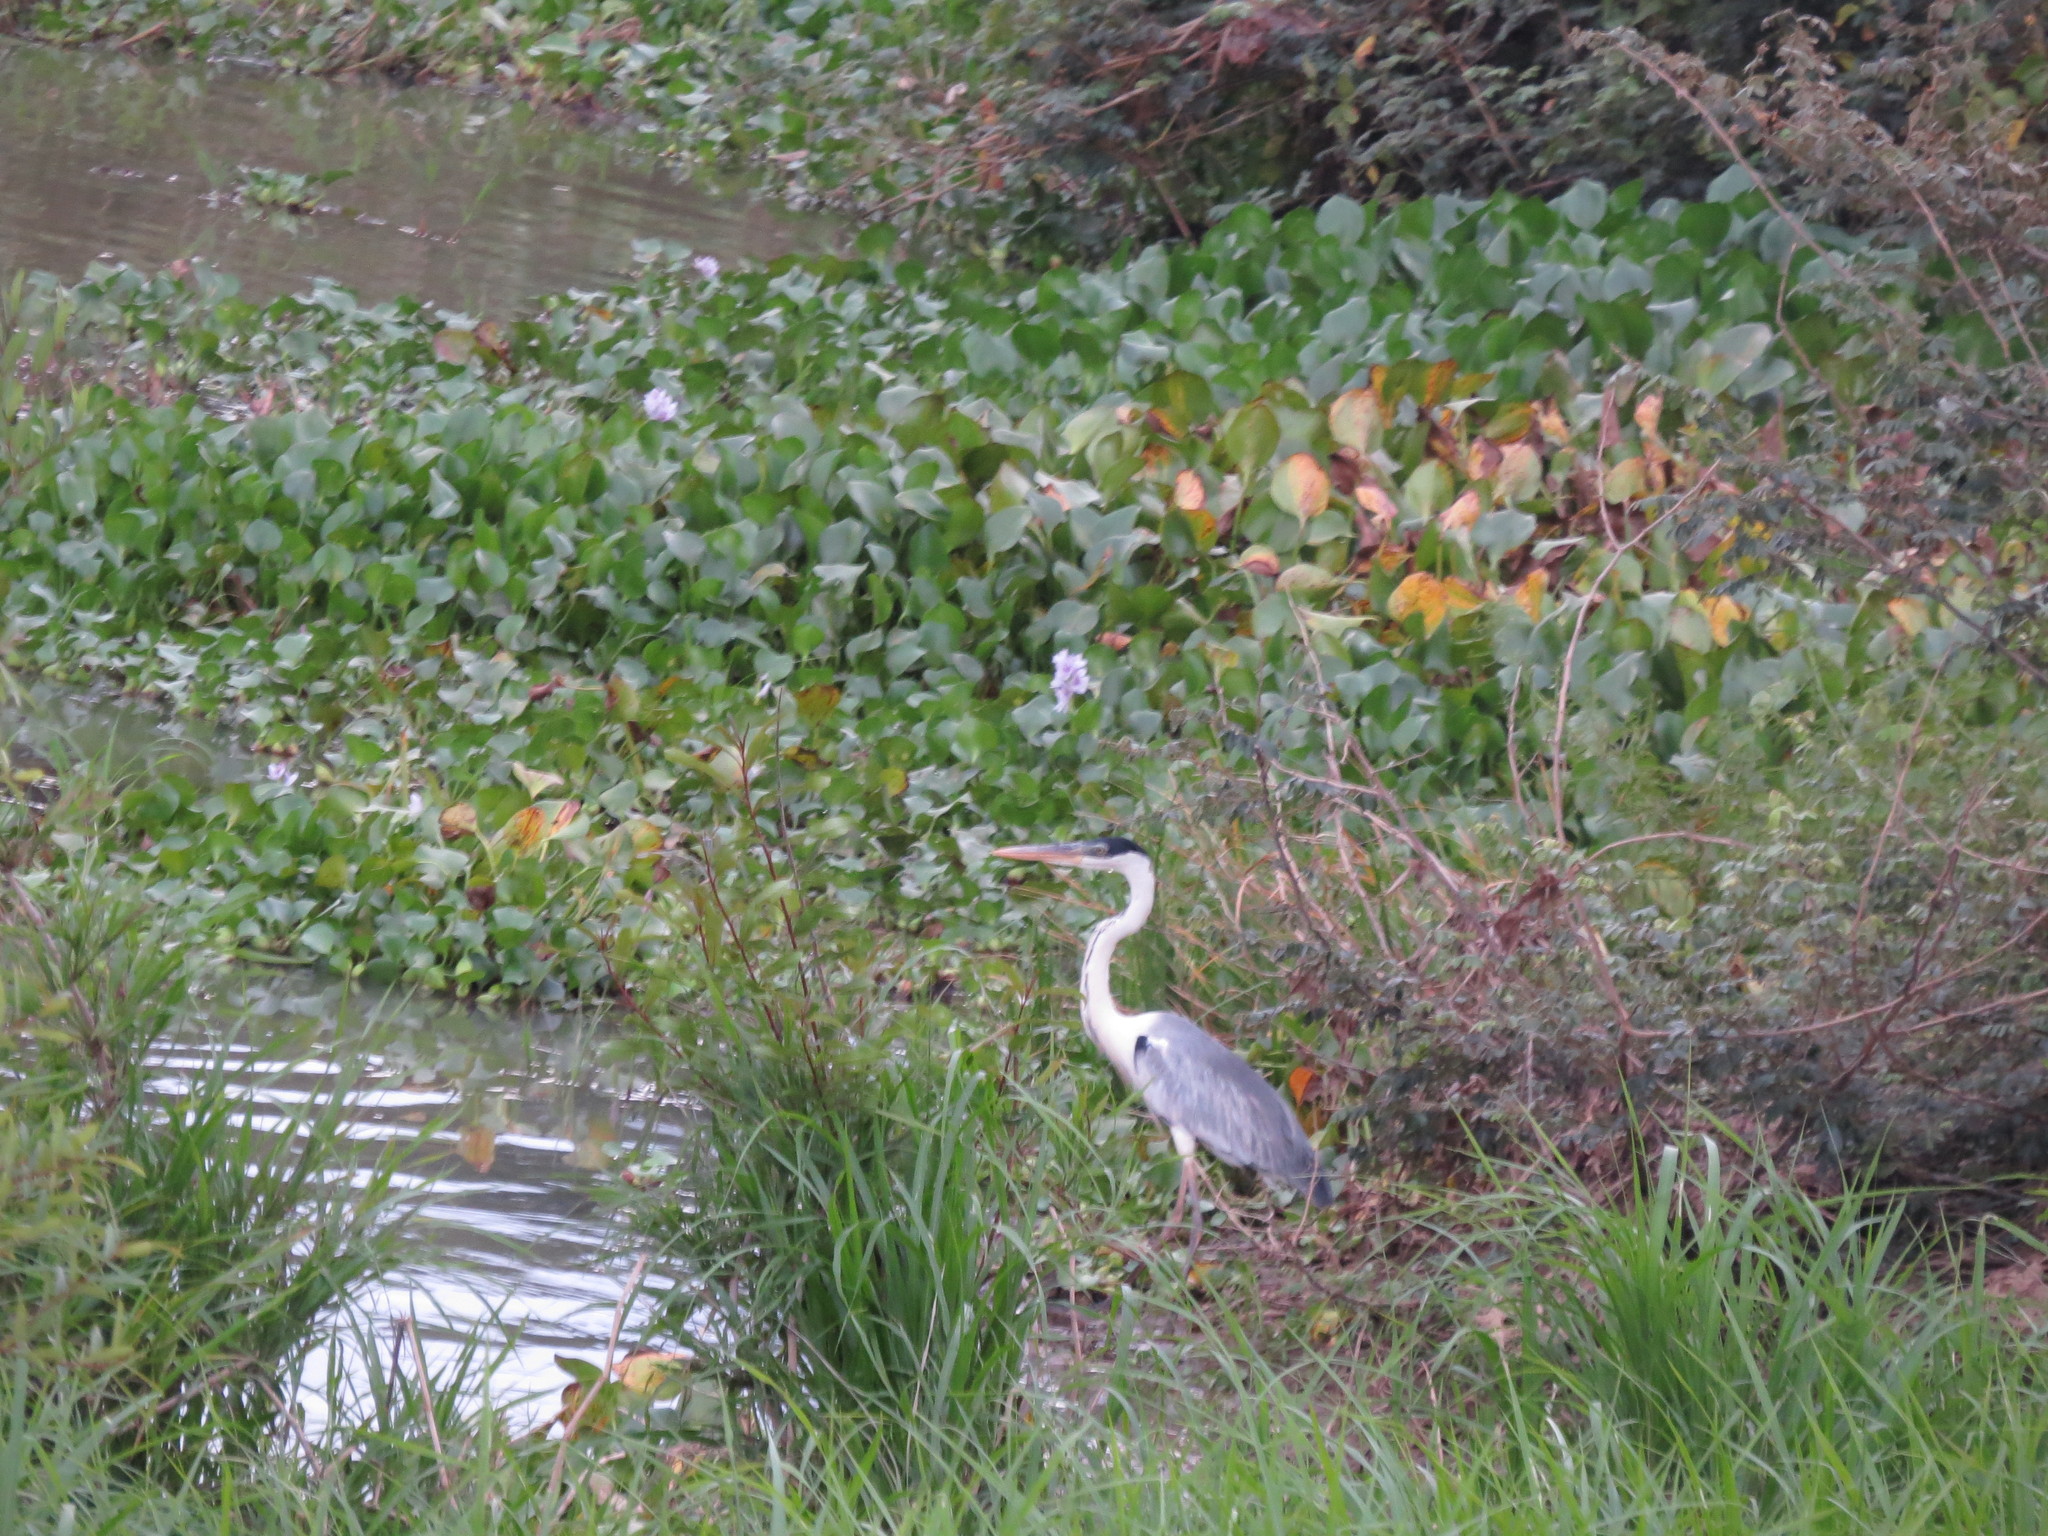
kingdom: Animalia
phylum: Chordata
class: Aves
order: Pelecaniformes
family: Ardeidae
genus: Ardea
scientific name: Ardea cocoi
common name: Cocoi heron
